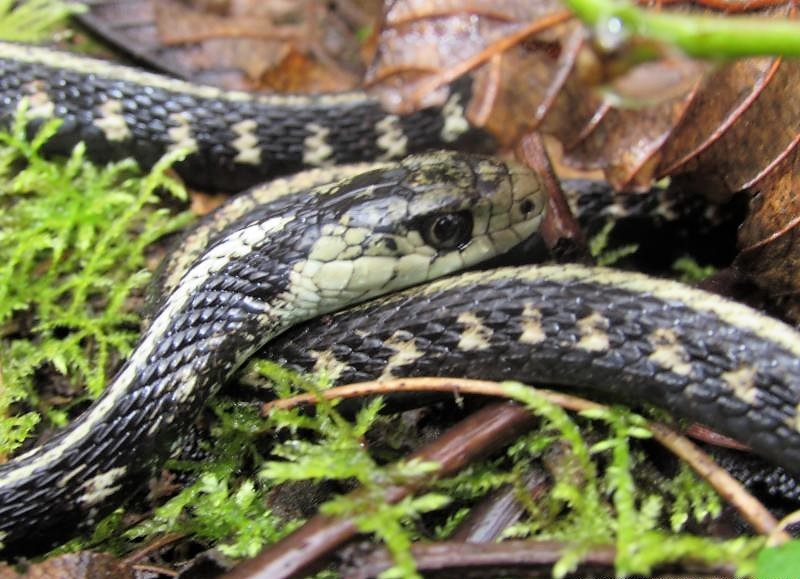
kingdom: Animalia
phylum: Chordata
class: Squamata
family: Colubridae
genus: Thamnophis
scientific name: Thamnophis sirtalis
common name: Common garter snake
